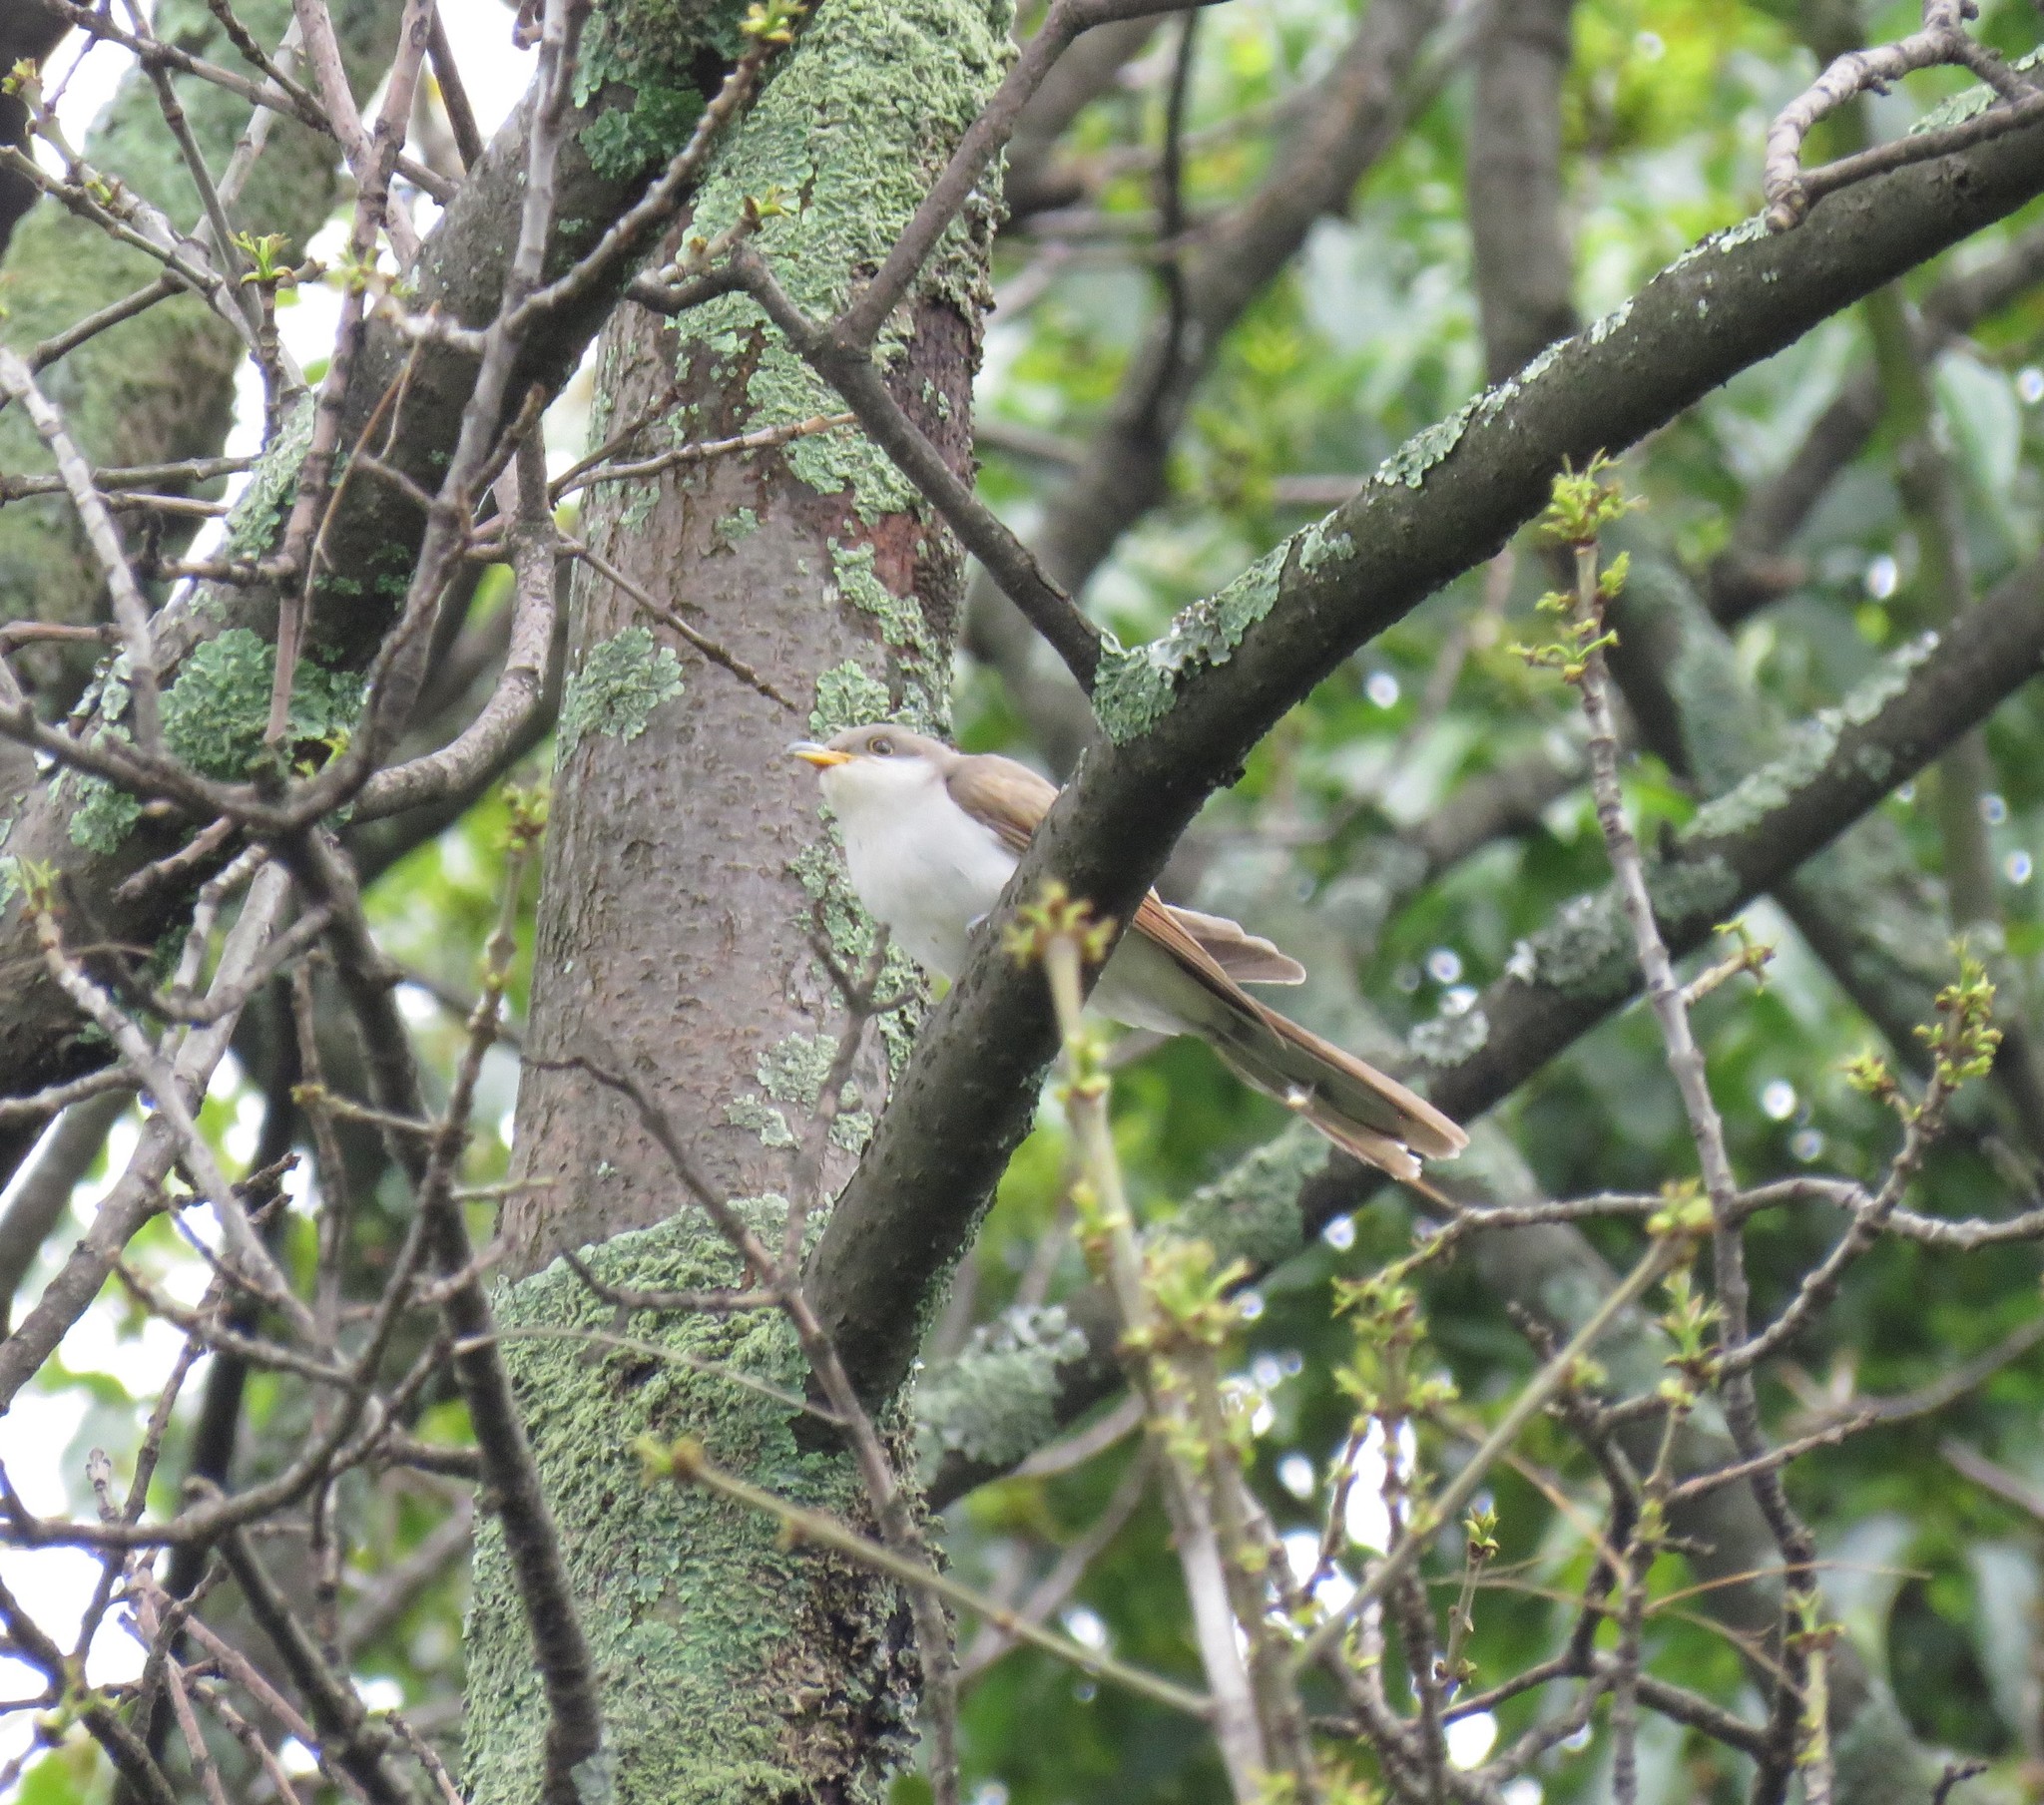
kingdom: Animalia
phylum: Chordata
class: Aves
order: Cuculiformes
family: Cuculidae
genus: Coccyzus
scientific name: Coccyzus americanus
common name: Yellow-billed cuckoo
